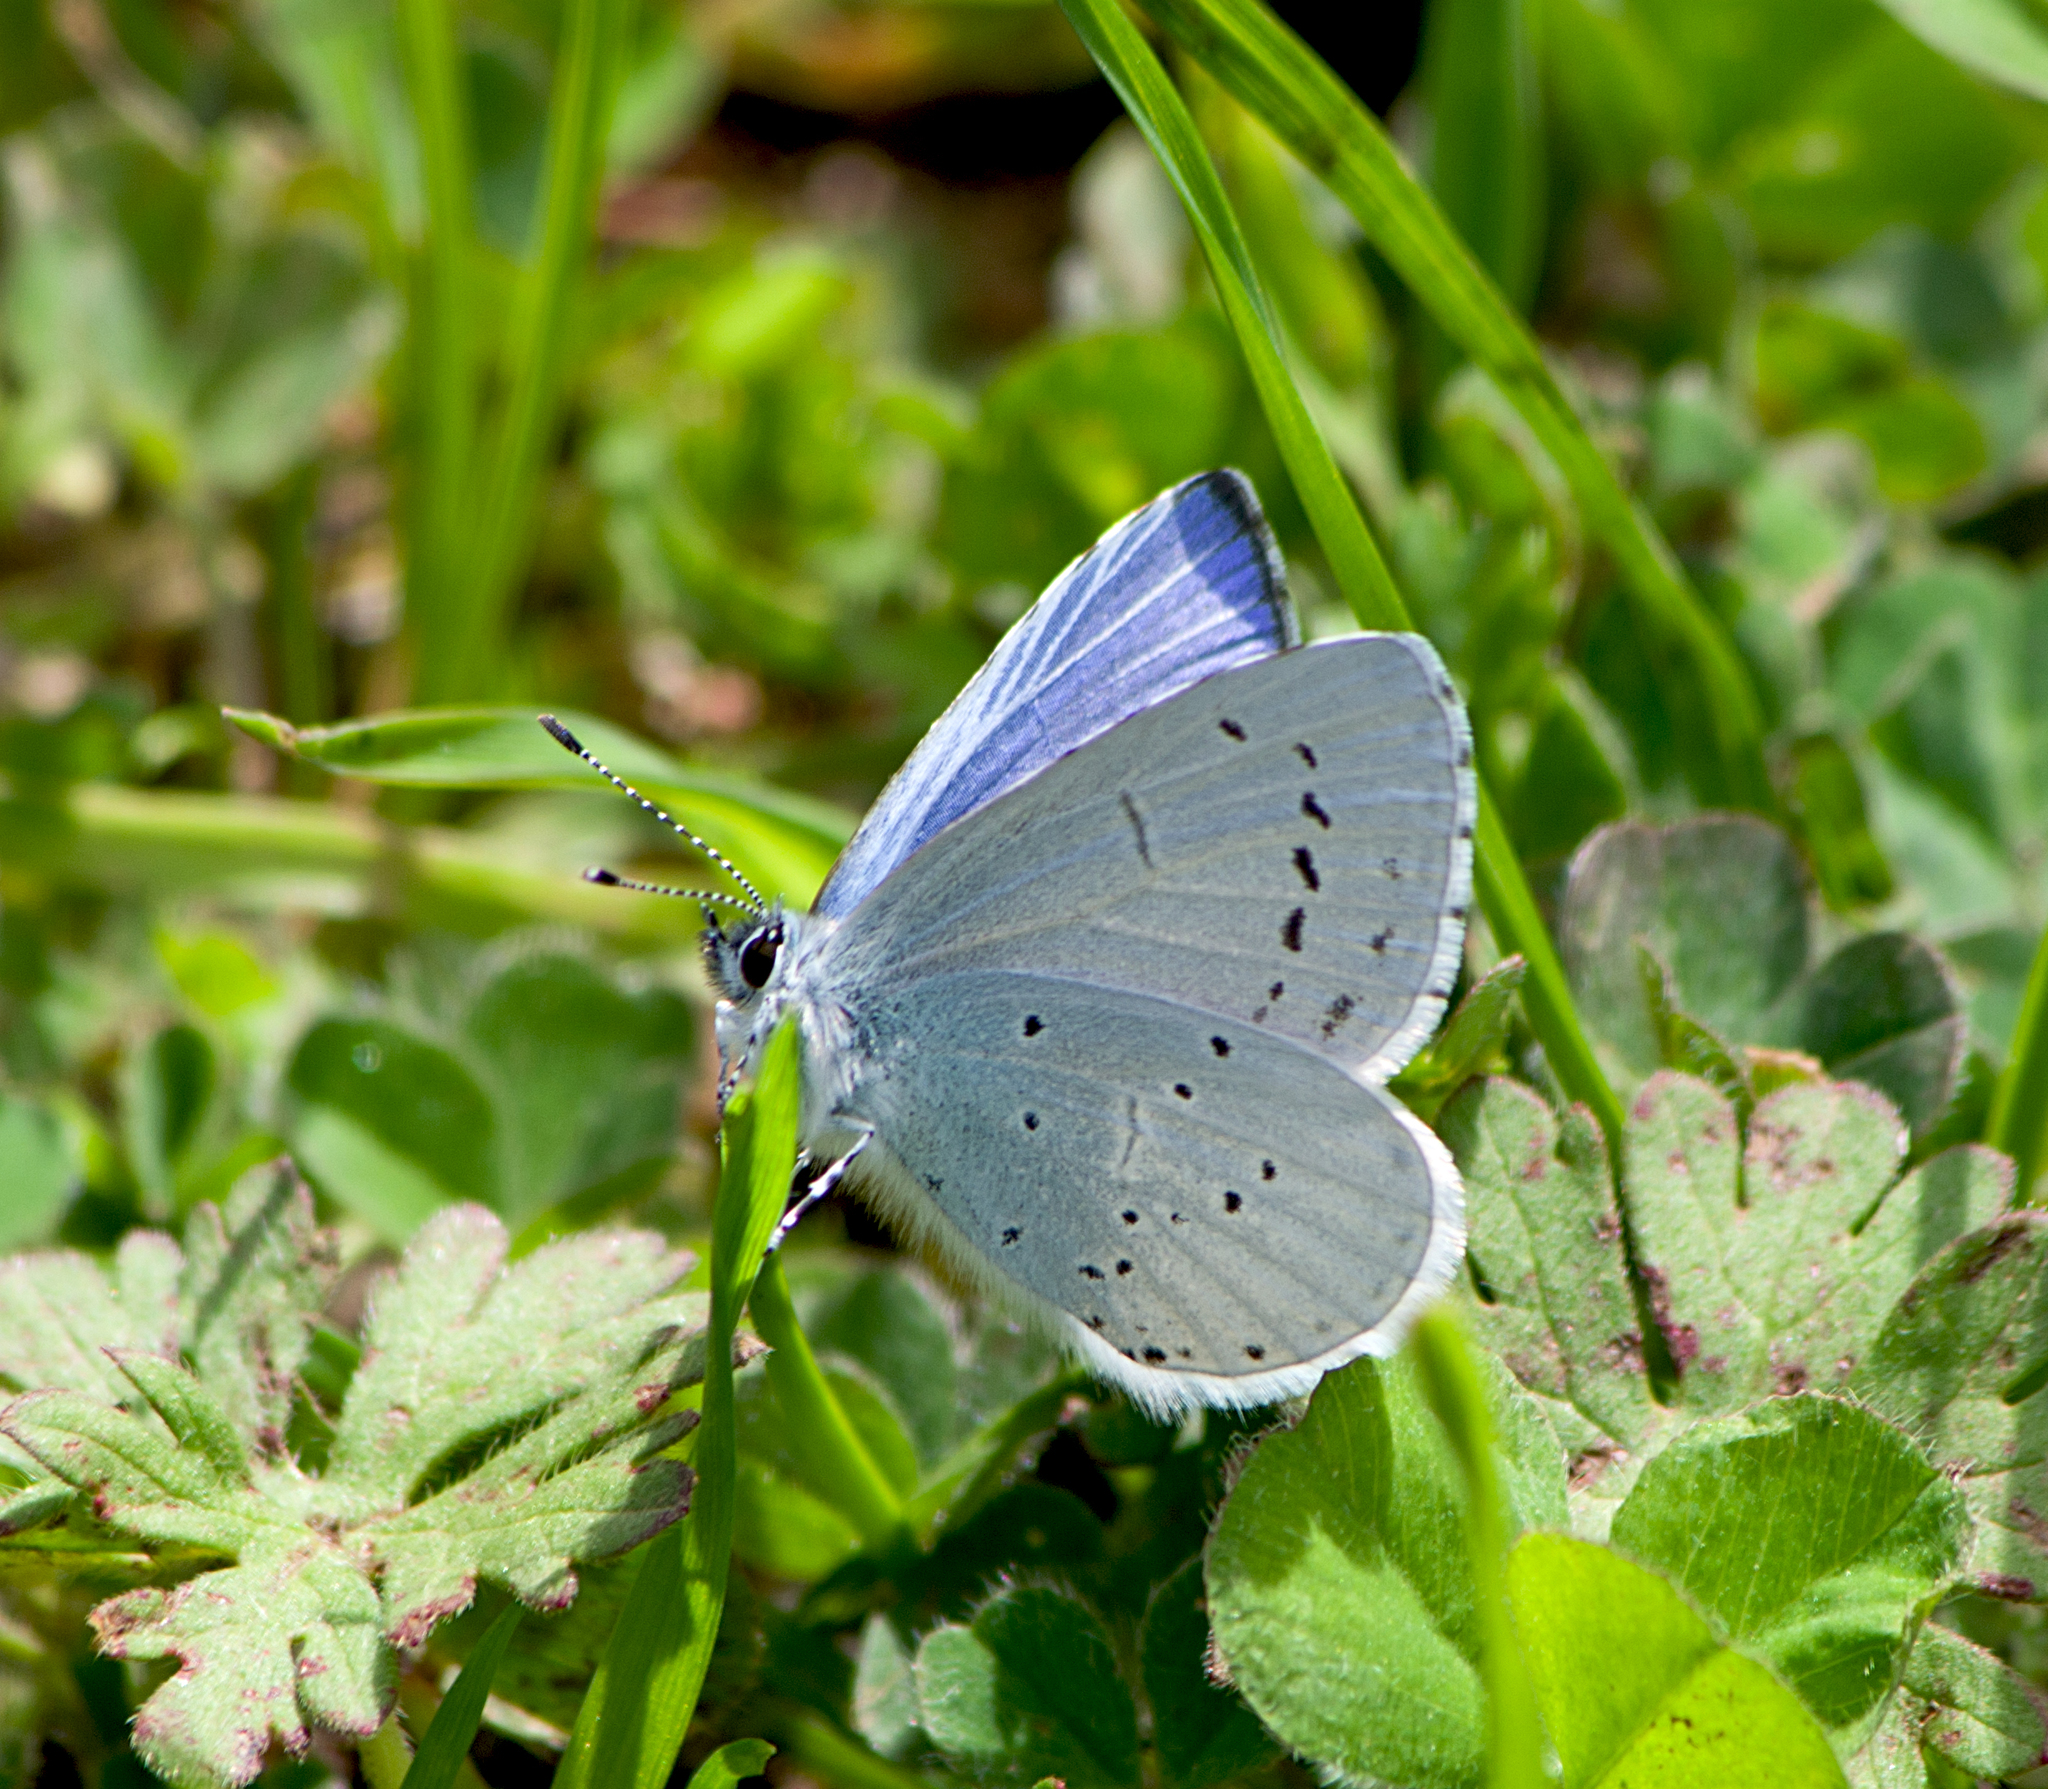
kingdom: Animalia
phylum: Arthropoda
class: Insecta
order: Lepidoptera
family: Lycaenidae
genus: Celastrina
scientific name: Celastrina argiolus
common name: Holly blue
